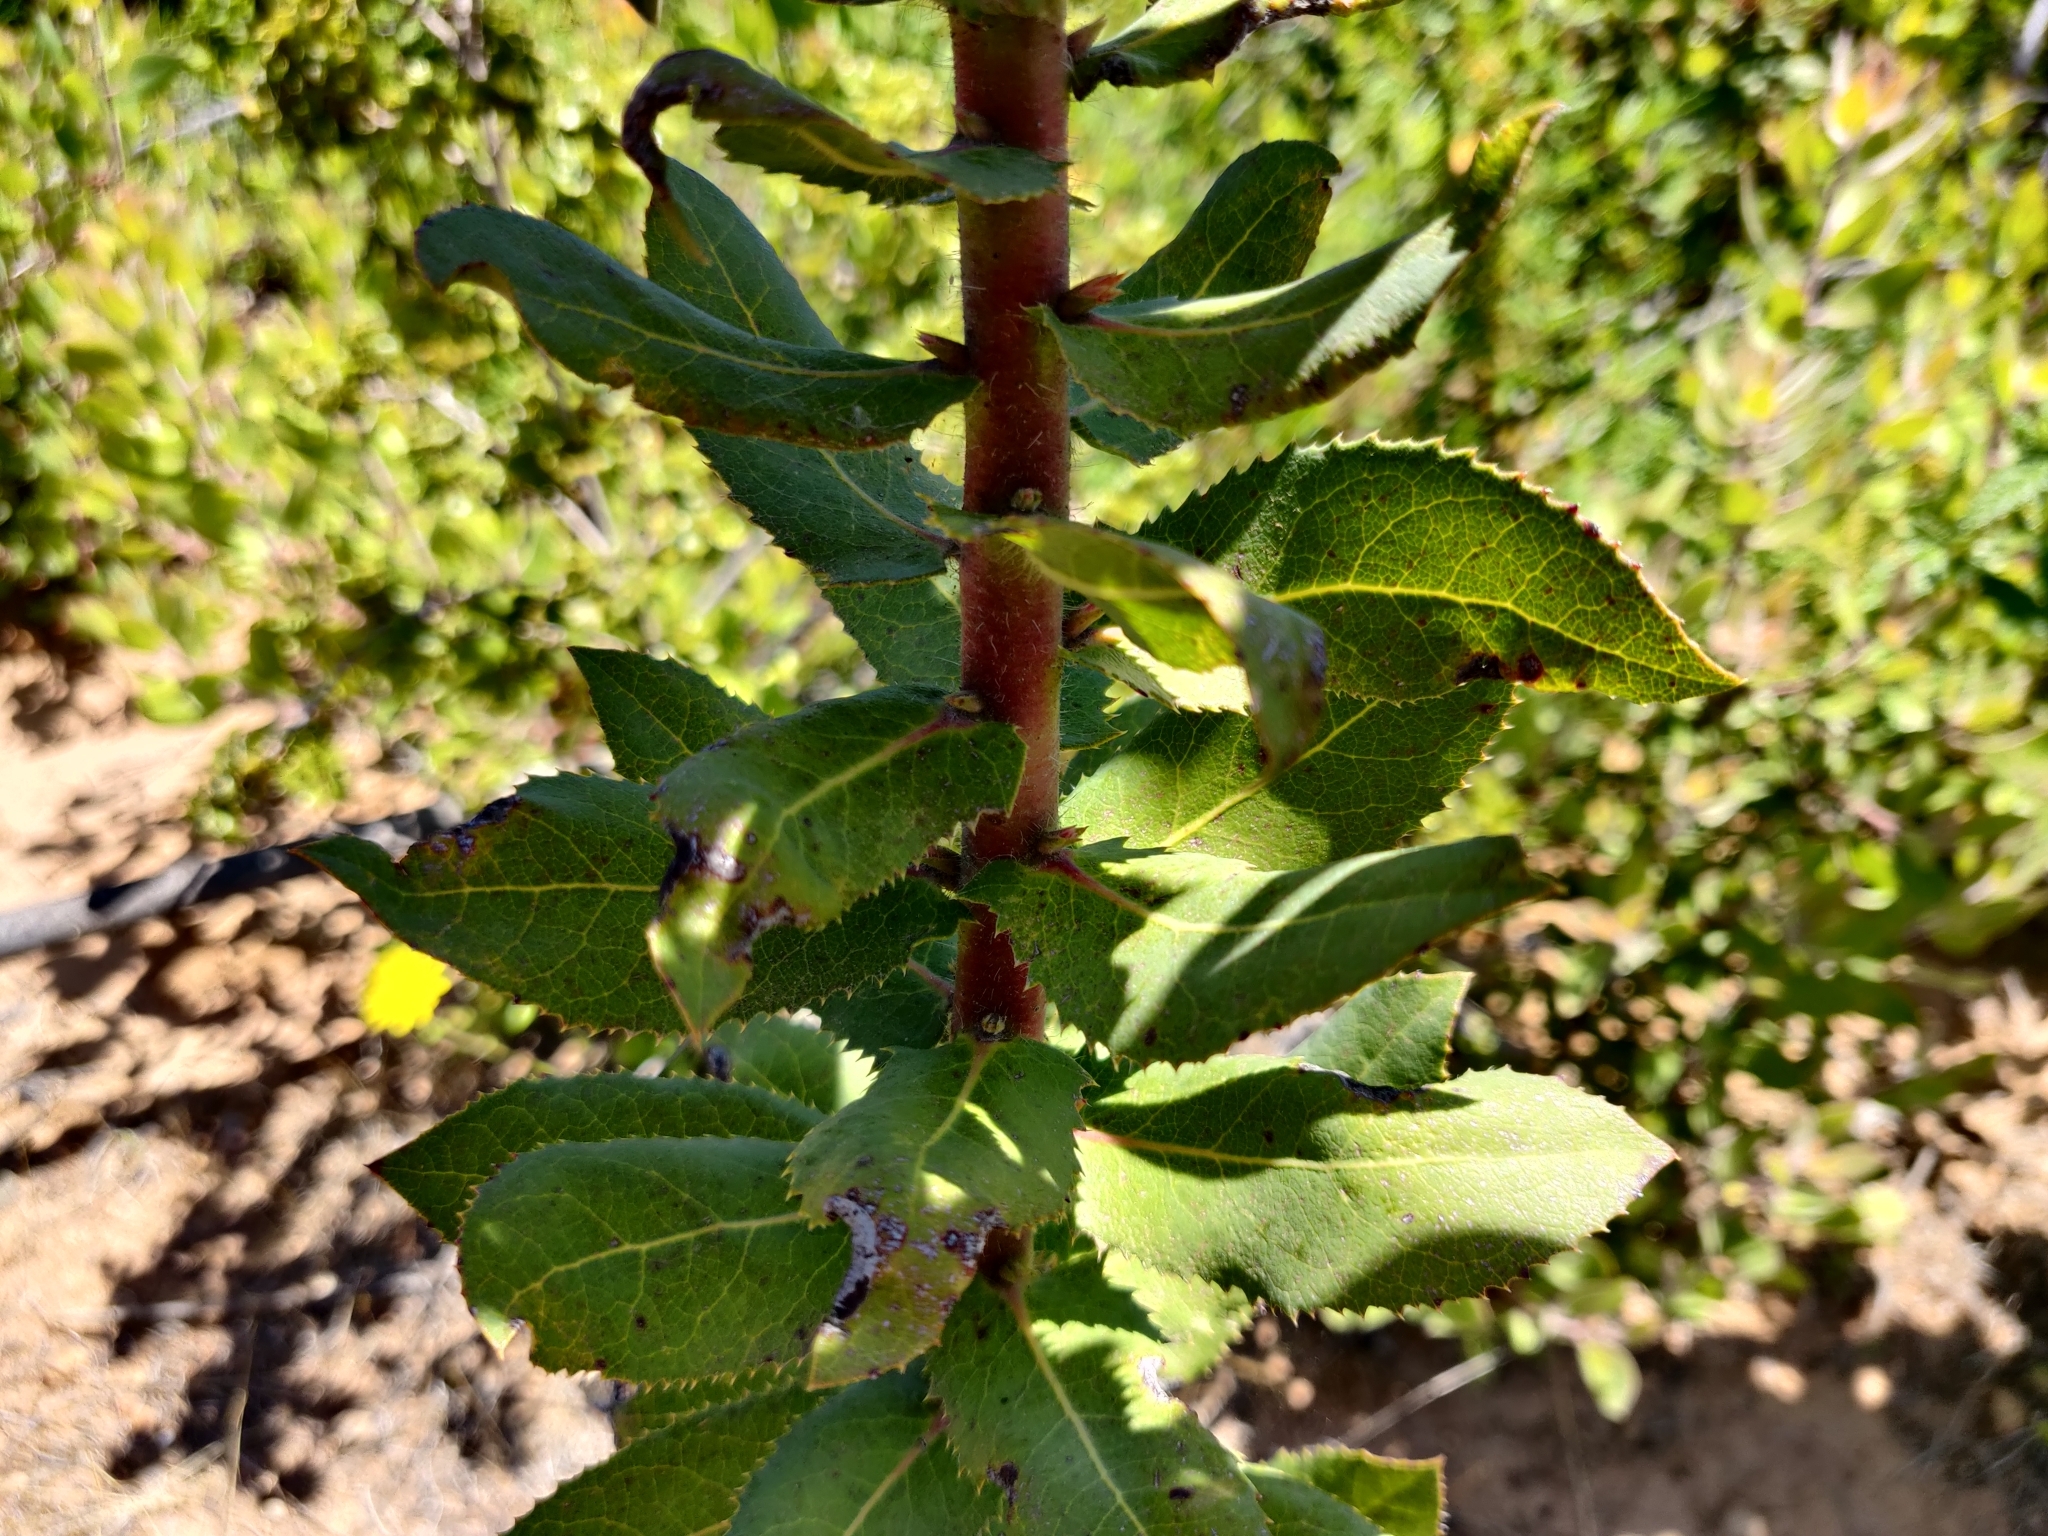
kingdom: Plantae
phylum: Tracheophyta
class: Magnoliopsida
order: Ericales
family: Ericaceae
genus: Arctostaphylos
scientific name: Arctostaphylos andersonii
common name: Santa cruz manzanita
